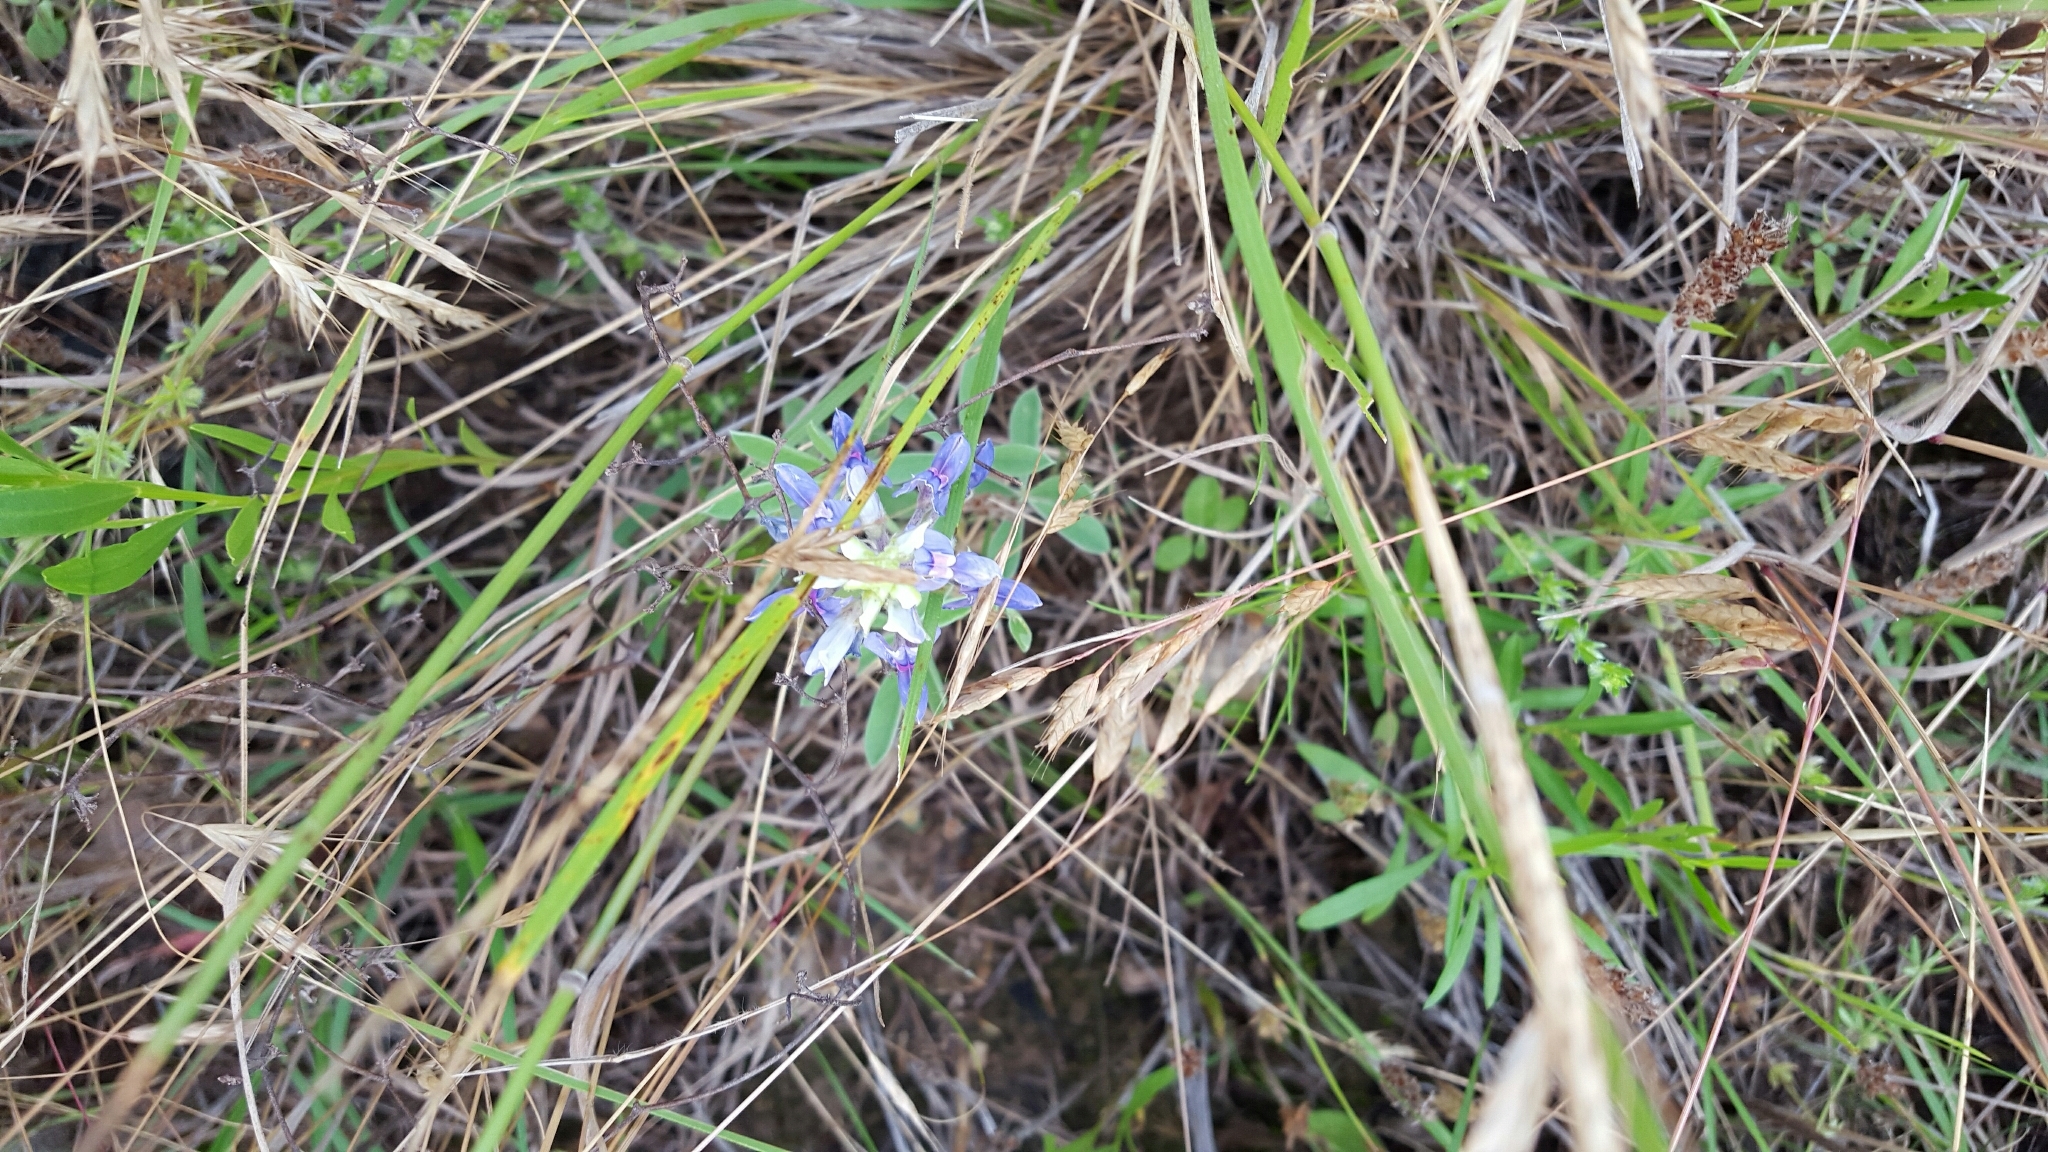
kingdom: Plantae
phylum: Tracheophyta
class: Magnoliopsida
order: Fabales
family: Fabaceae
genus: Lupinus
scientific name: Lupinus texensis
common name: Texas bluebonnet
